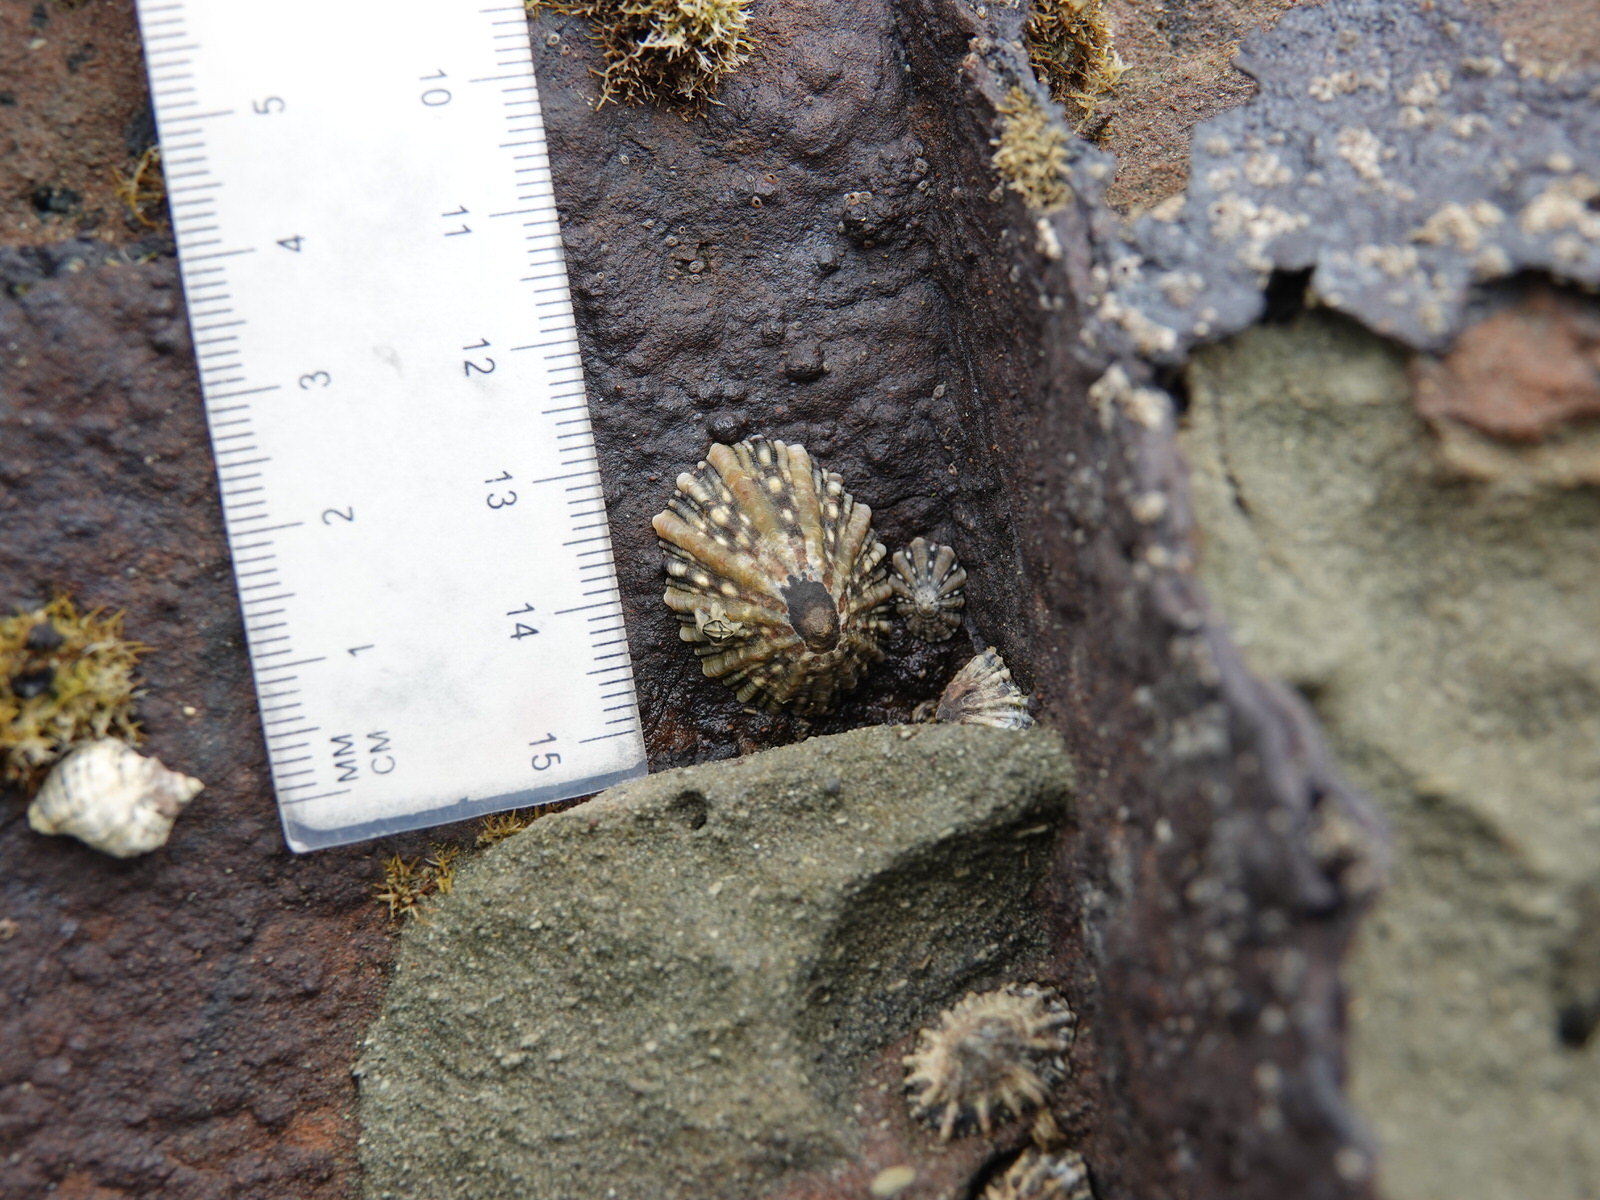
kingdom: Animalia
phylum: Mollusca
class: Gastropoda
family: Nacellidae
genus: Cellana
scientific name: Cellana ornata
